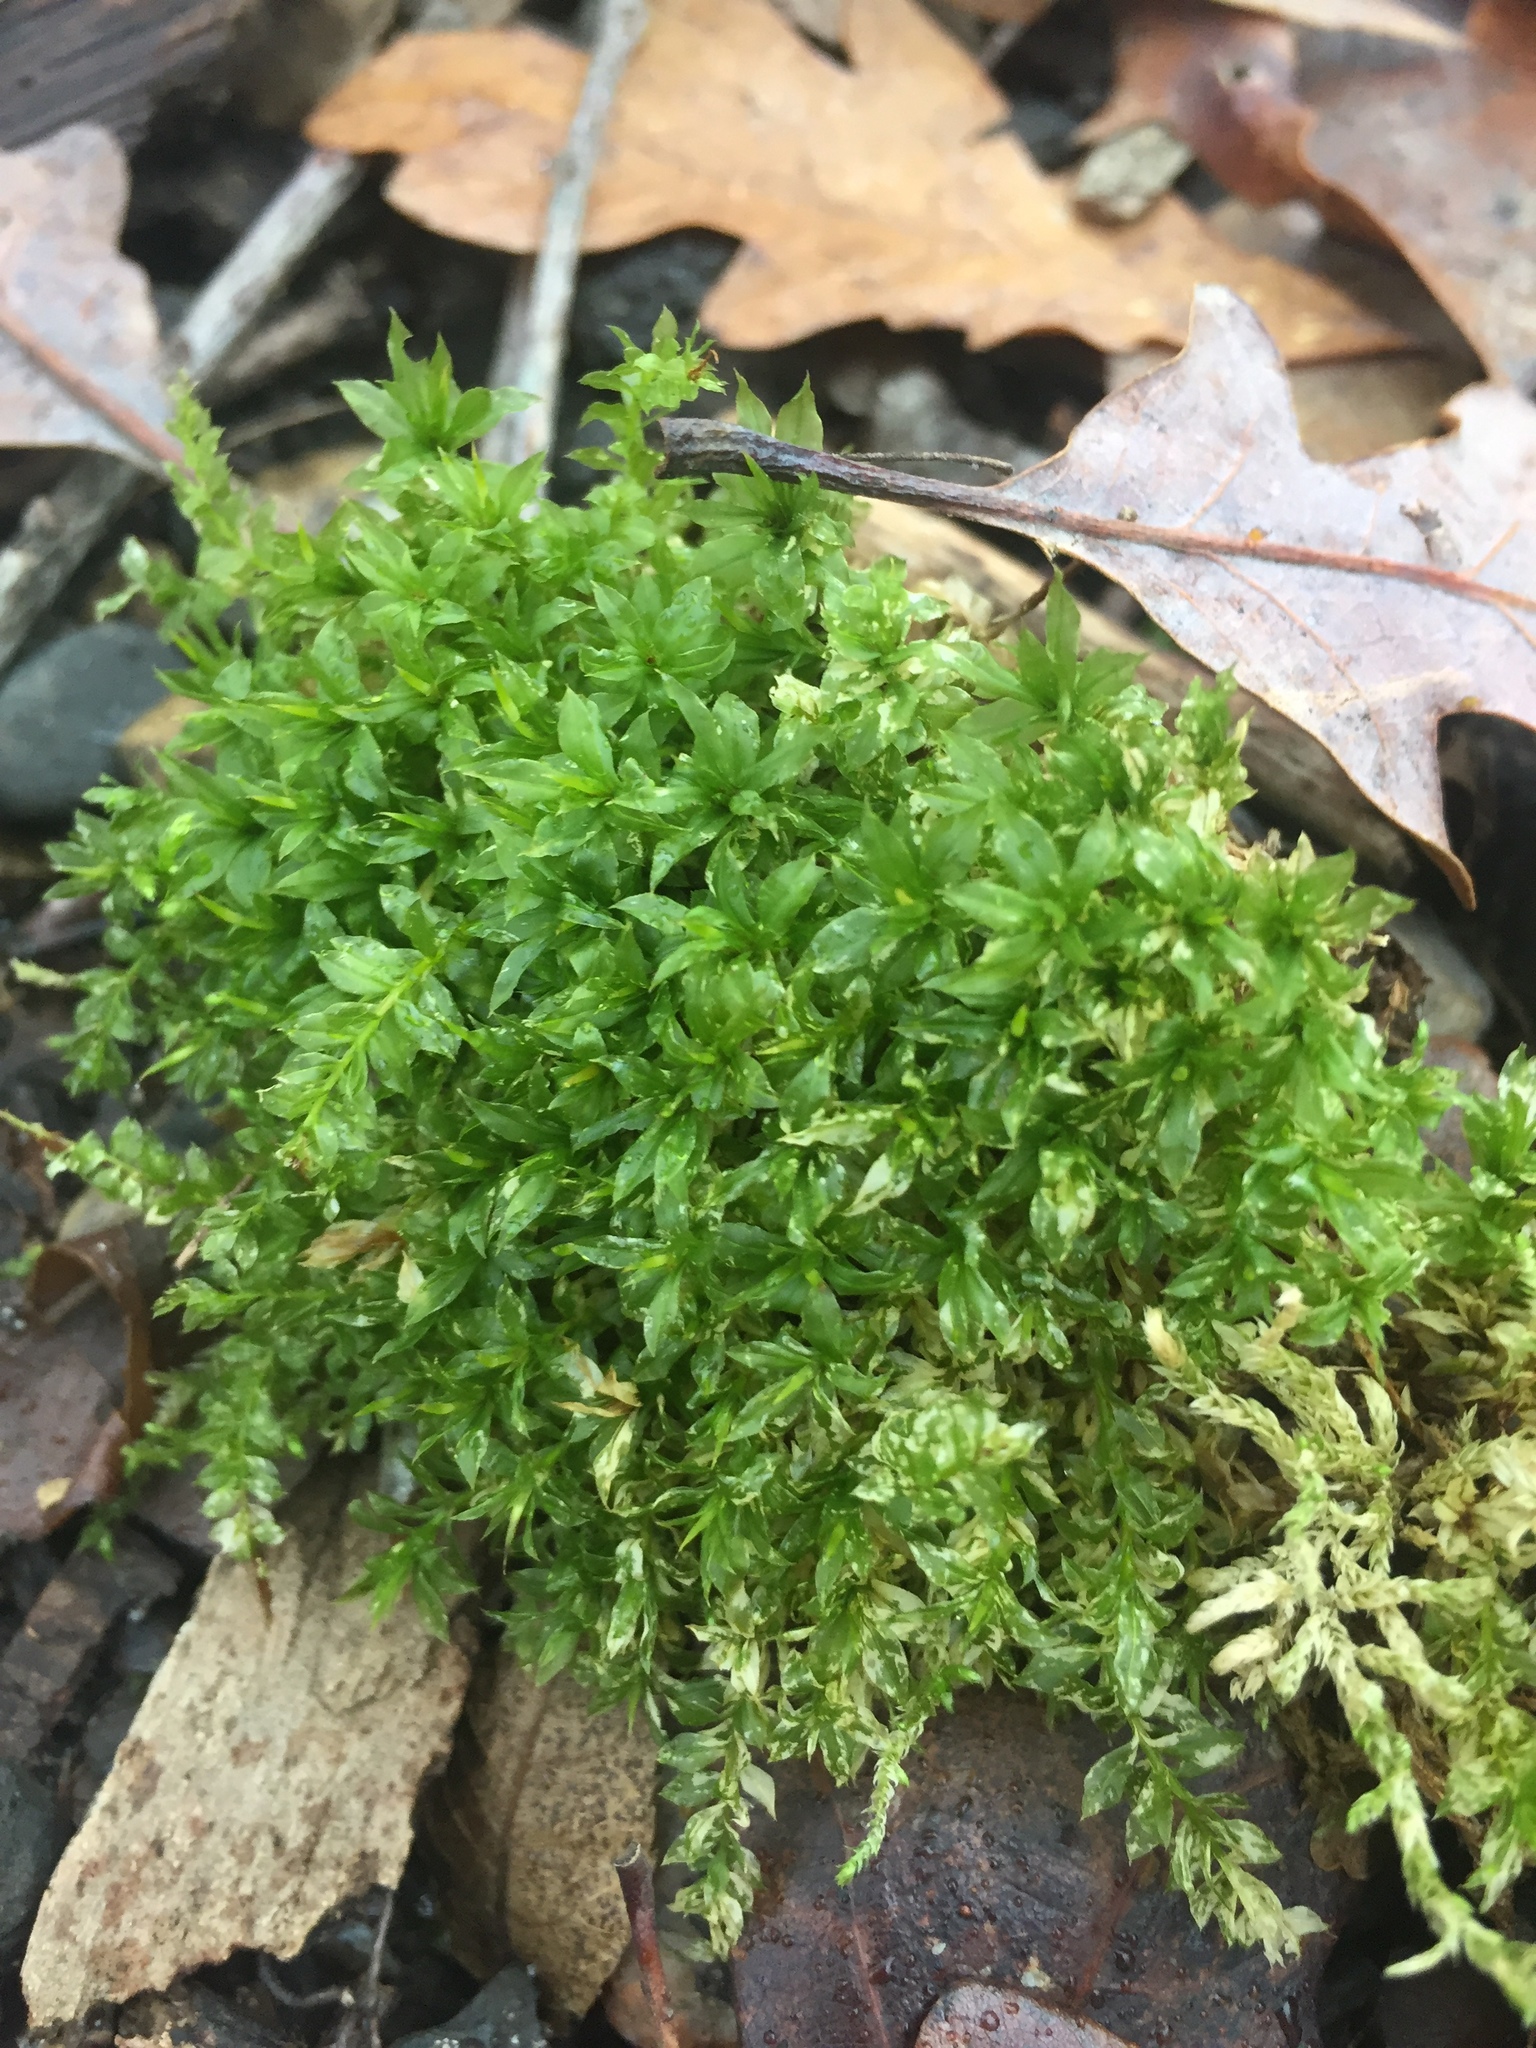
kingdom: Plantae
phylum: Bryophyta
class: Bryopsida
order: Bryales
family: Mniaceae
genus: Plagiomnium
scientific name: Plagiomnium cuspidatum
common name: Woodsy leafy moss
